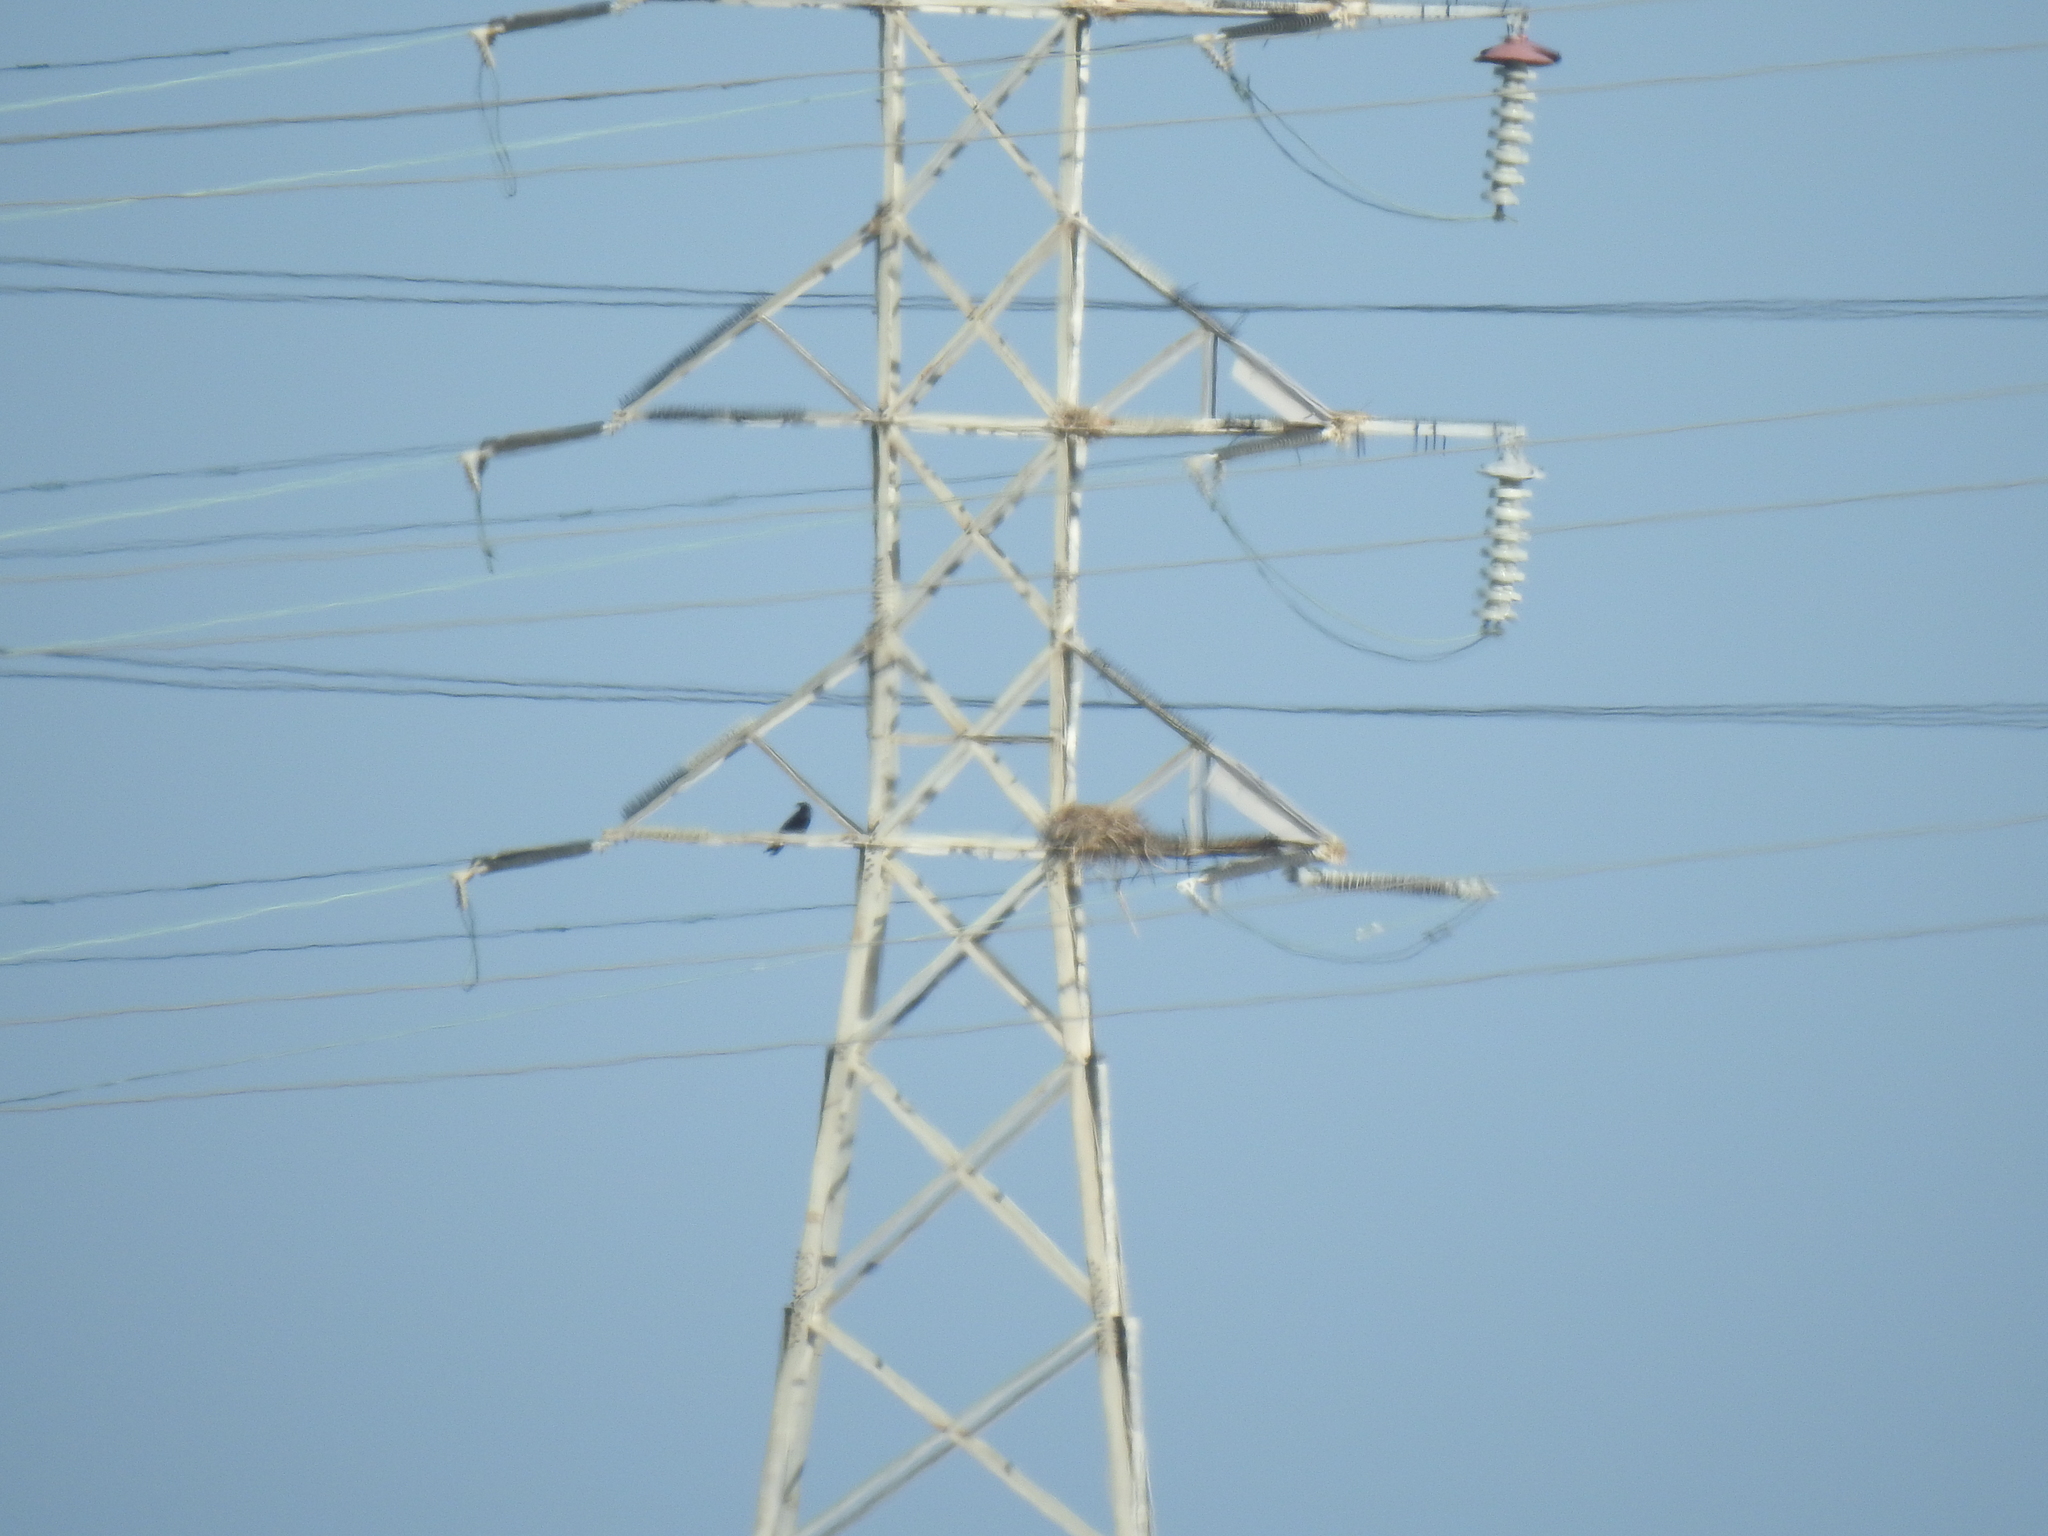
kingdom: Animalia
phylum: Chordata
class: Aves
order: Passeriformes
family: Corvidae
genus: Corvus
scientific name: Corvus corax
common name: Common raven
